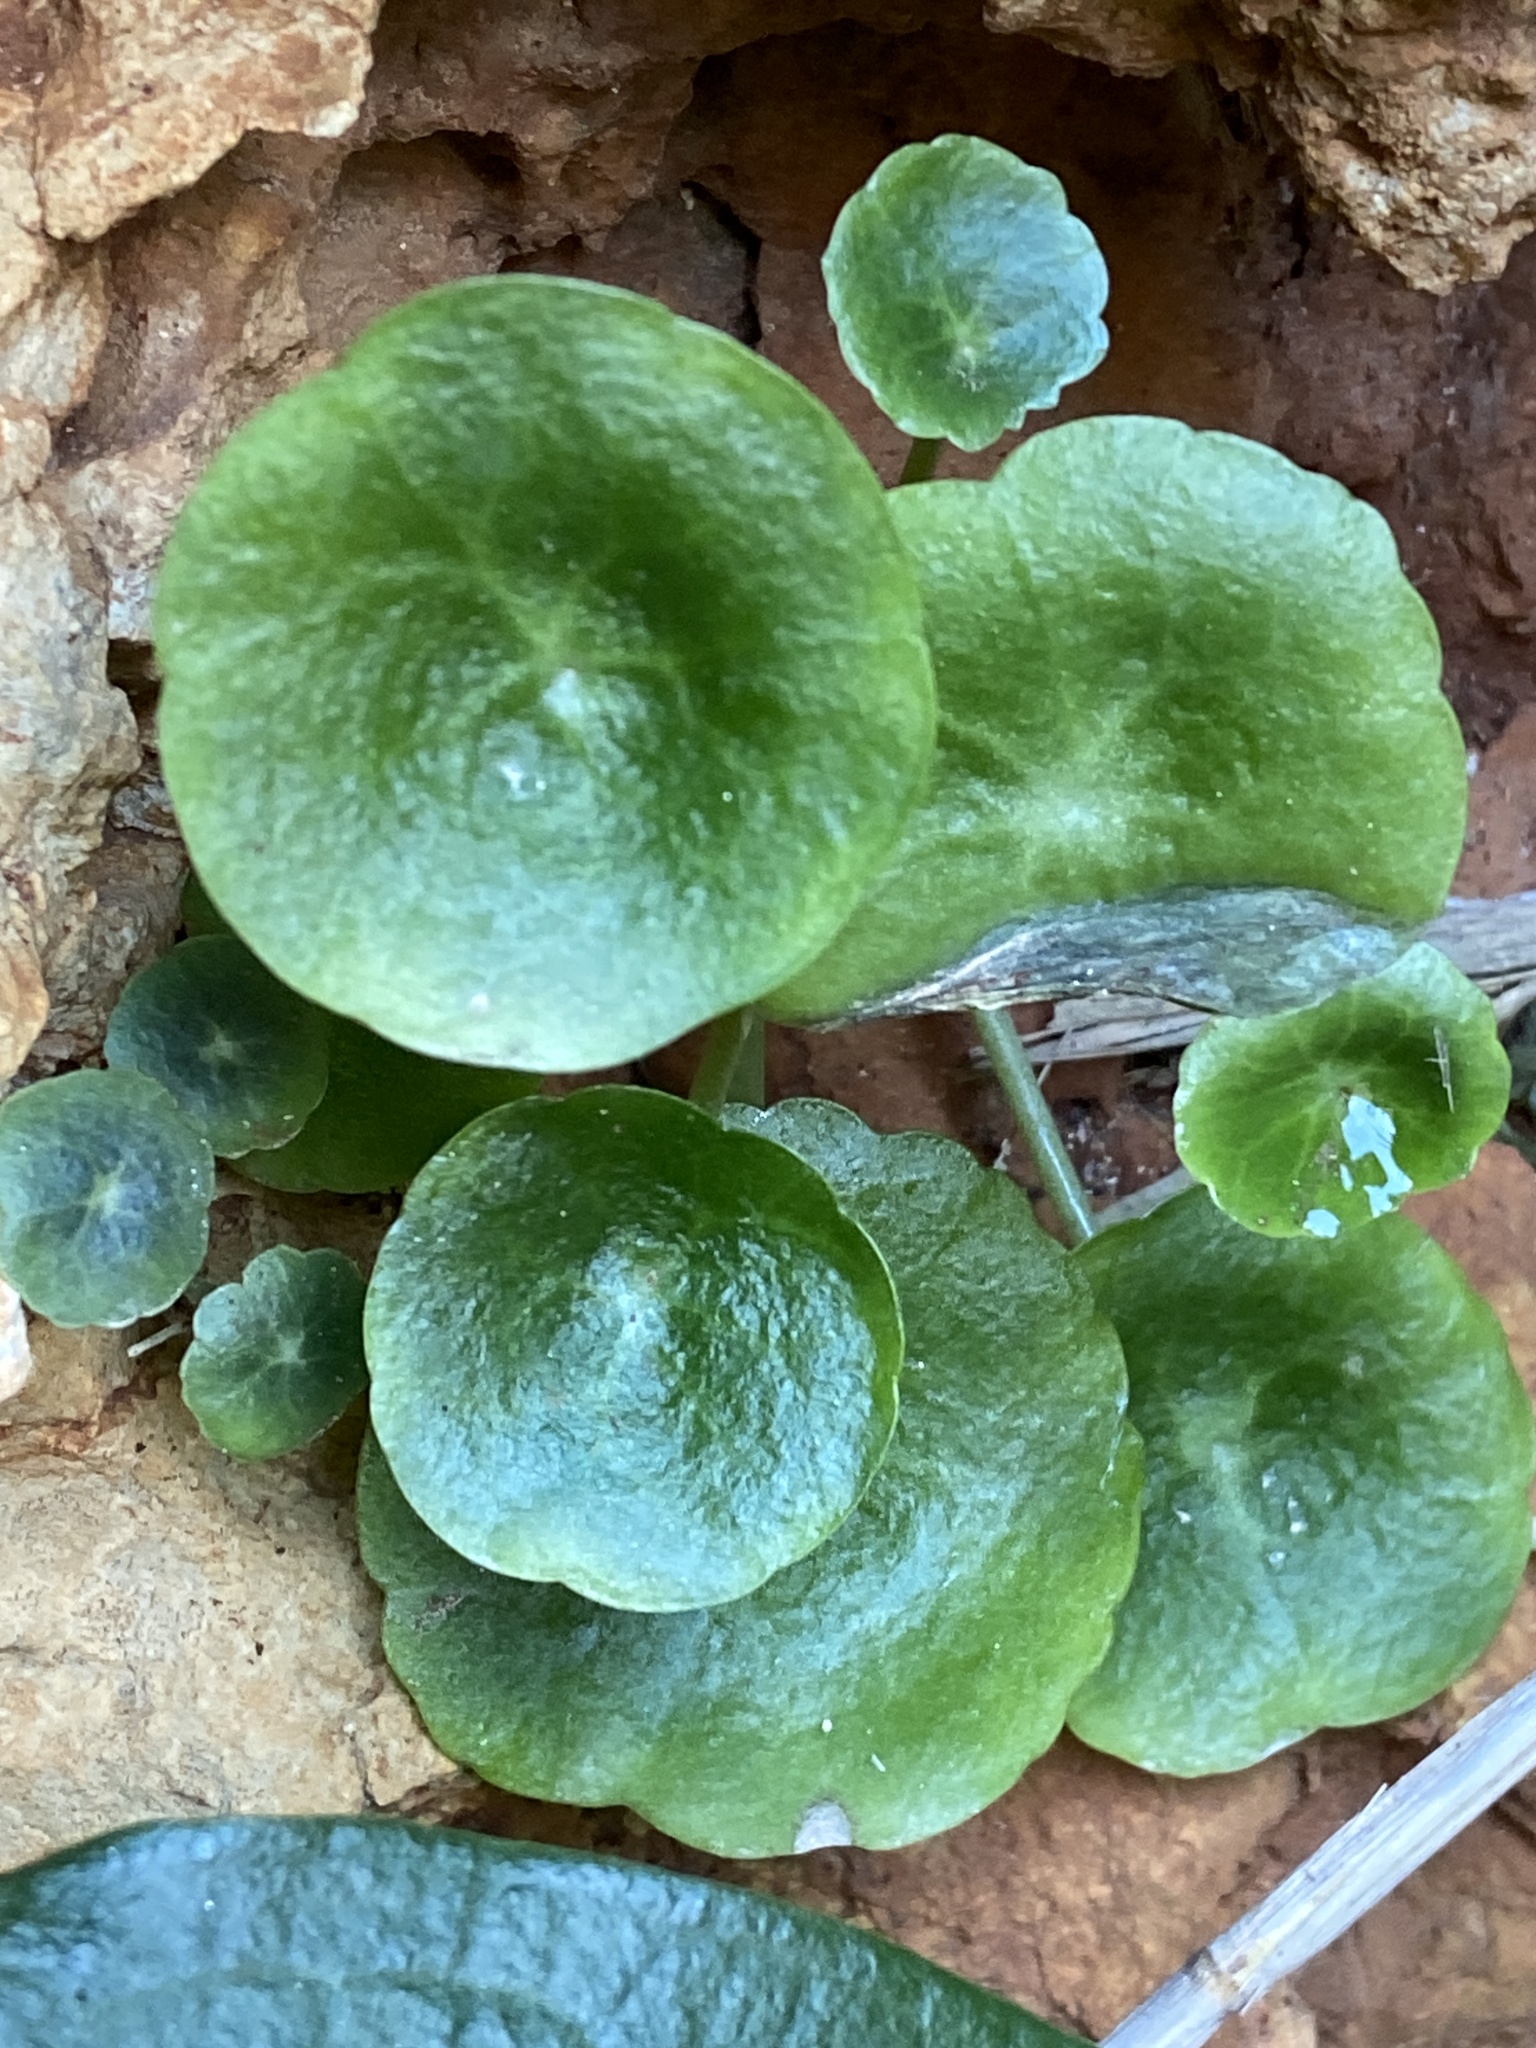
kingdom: Plantae
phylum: Tracheophyta
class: Magnoliopsida
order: Saxifragales
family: Crassulaceae
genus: Umbilicus
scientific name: Umbilicus rupestris
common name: Navelwort
